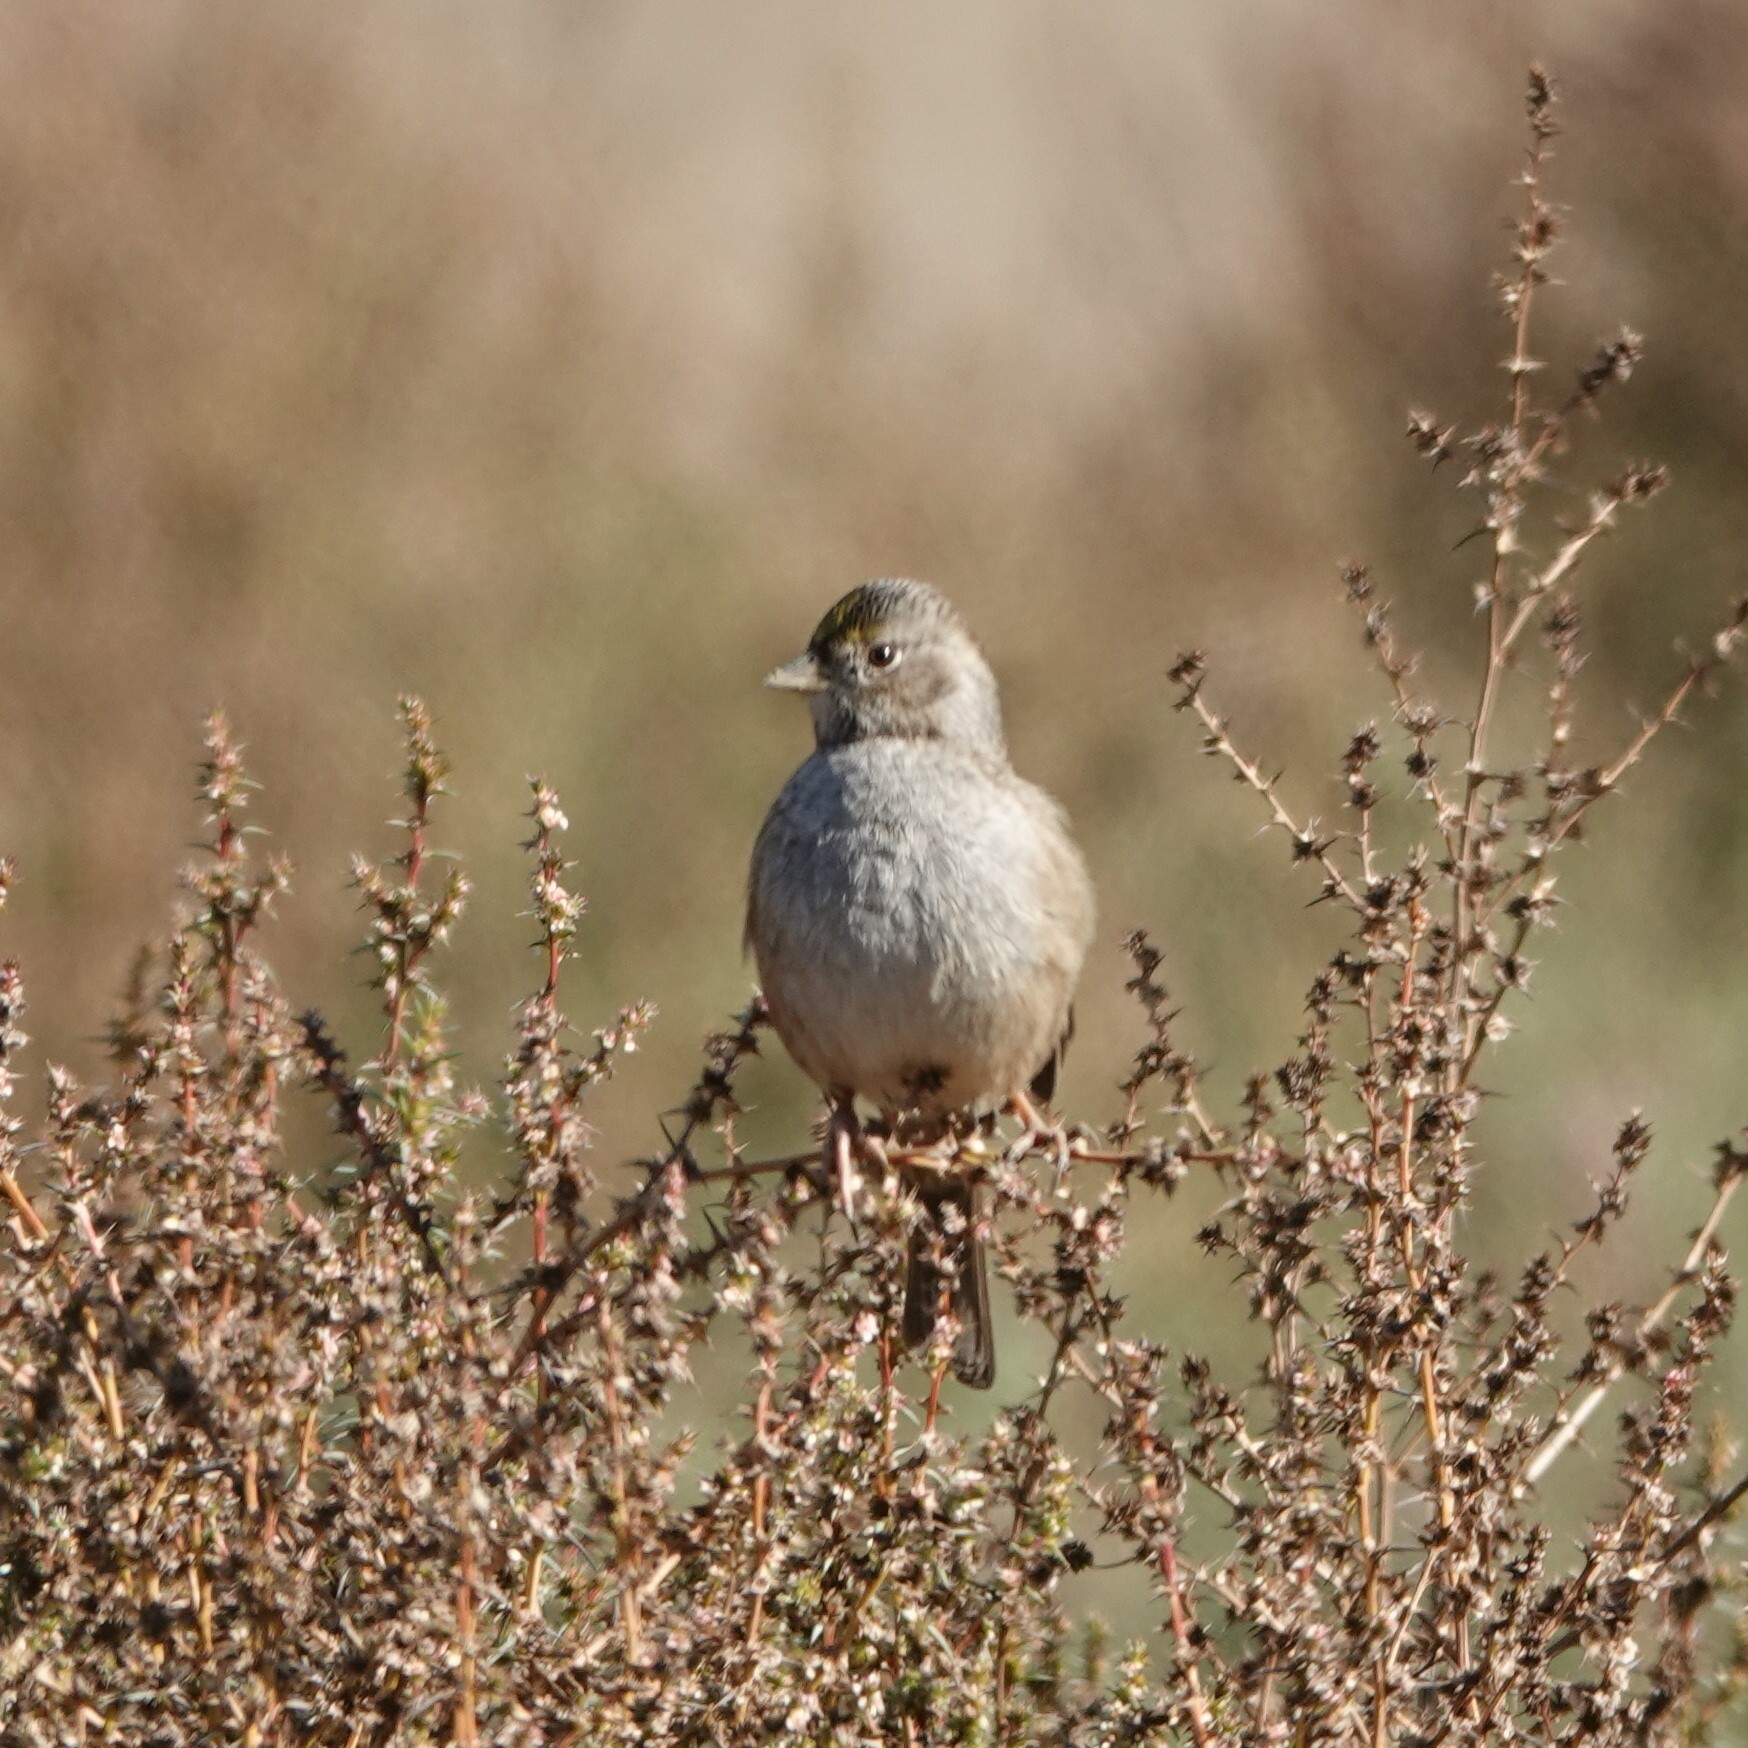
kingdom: Animalia
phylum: Chordata
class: Aves
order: Passeriformes
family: Passerellidae
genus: Zonotrichia
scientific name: Zonotrichia atricapilla
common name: Golden-crowned sparrow
